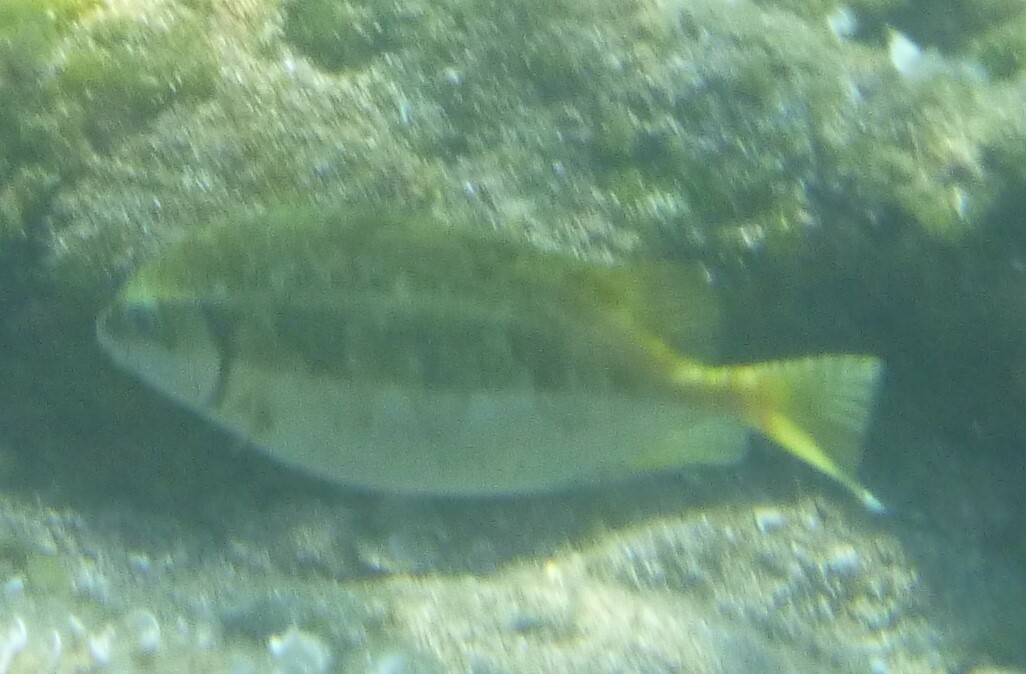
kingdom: Animalia
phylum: Chordata
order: Perciformes
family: Siganidae
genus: Siganus
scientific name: Siganus luridus
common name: Dusky spinefoot
